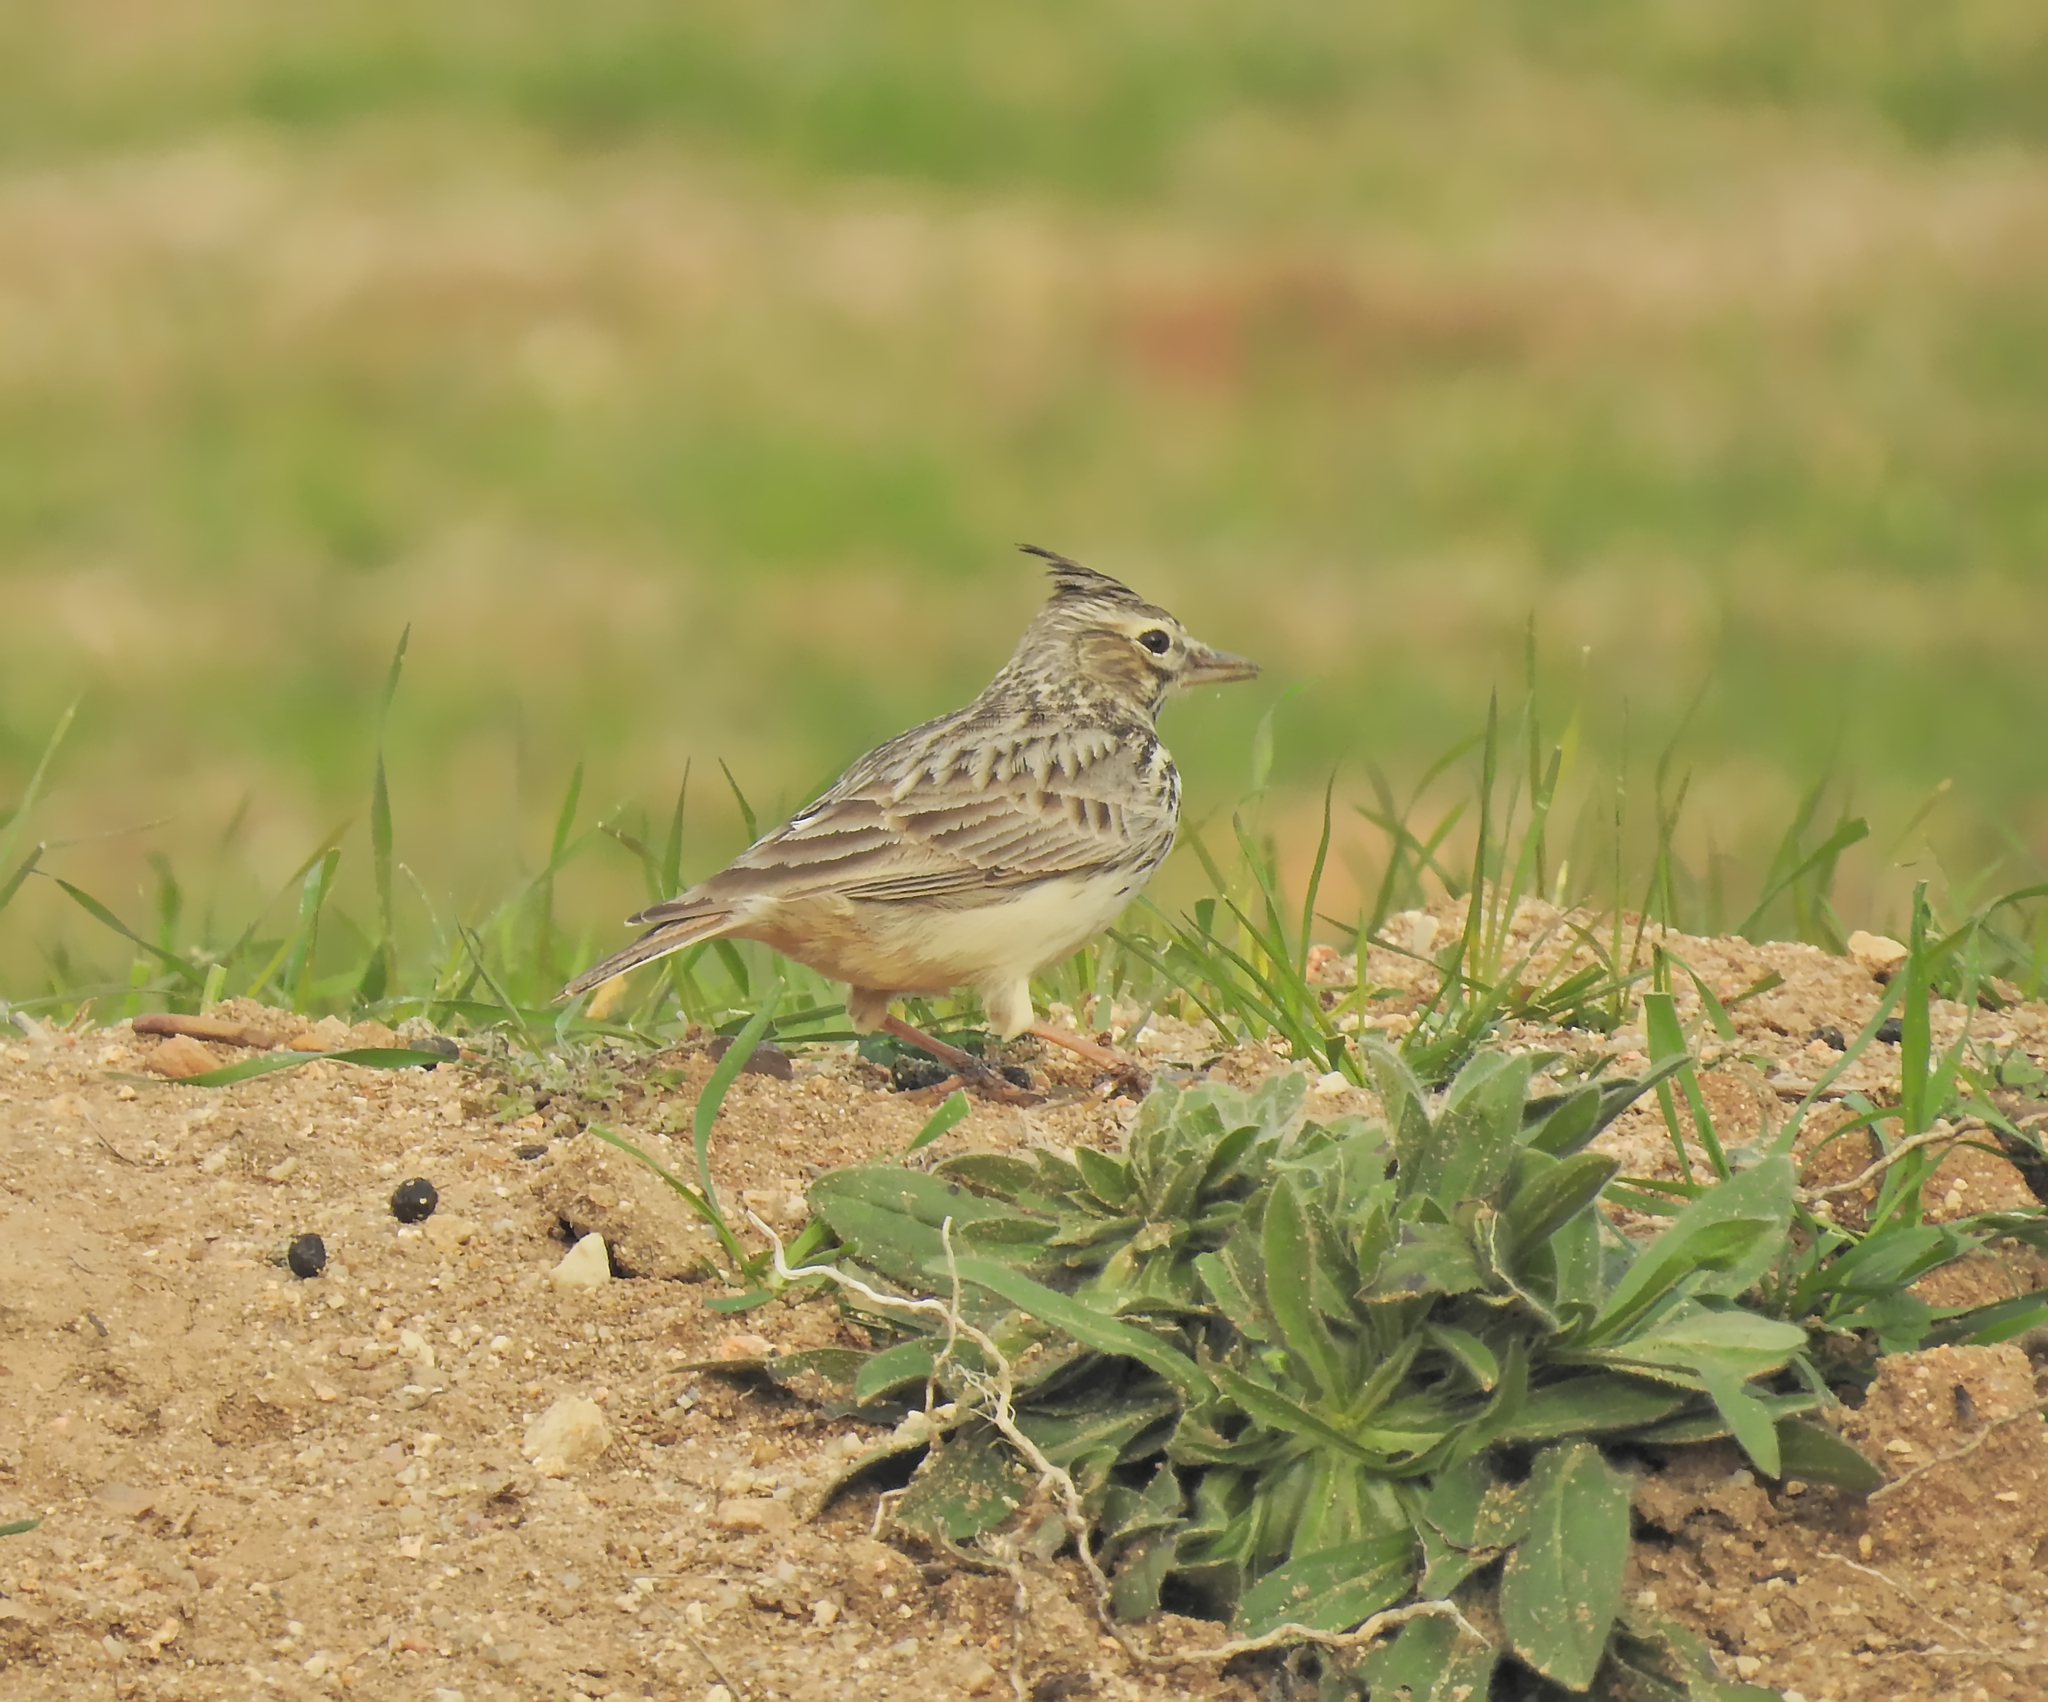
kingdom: Animalia
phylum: Chordata
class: Aves
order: Passeriformes
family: Alaudidae
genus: Galerida
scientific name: Galerida cristata
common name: Crested lark
